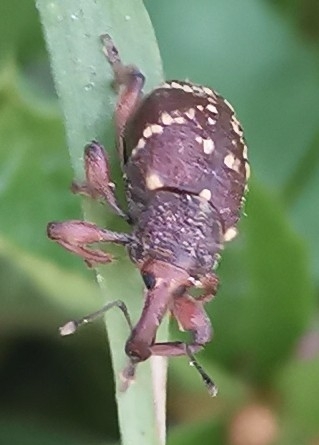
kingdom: Animalia
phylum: Arthropoda
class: Insecta
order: Coleoptera
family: Curculionidae
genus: Hylobius
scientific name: Hylobius abietis
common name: Large pine weevil
